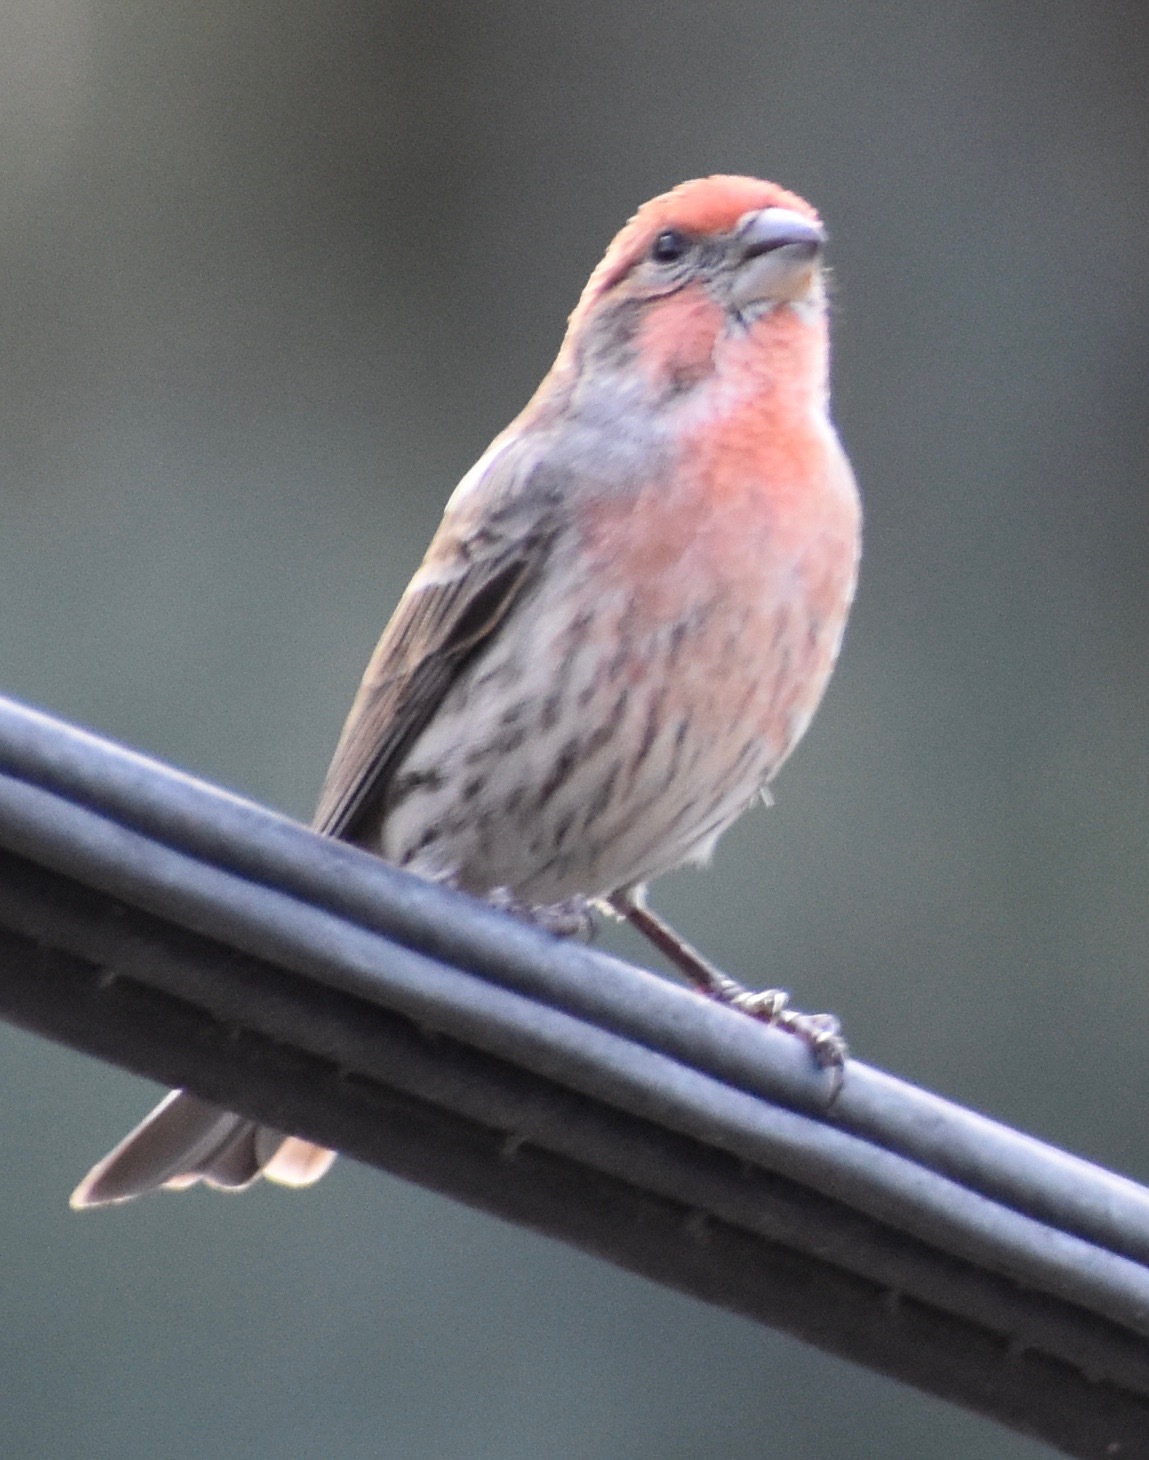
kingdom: Animalia
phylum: Chordata
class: Aves
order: Passeriformes
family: Fringillidae
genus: Haemorhous
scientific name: Haemorhous mexicanus
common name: House finch
